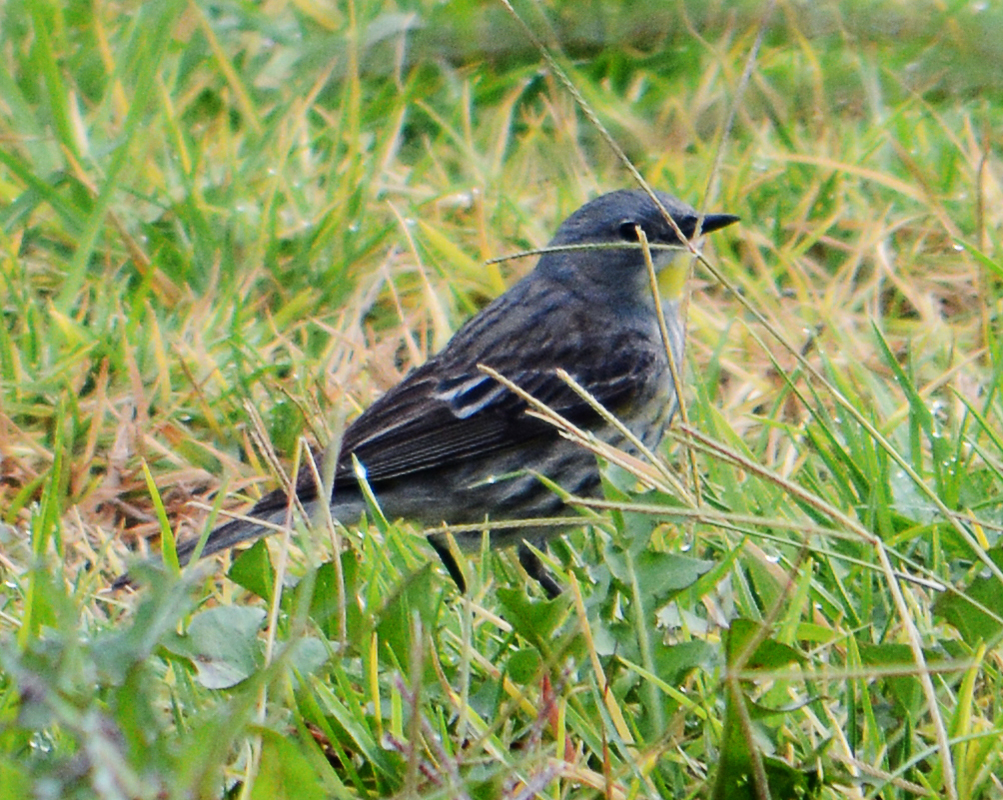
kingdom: Animalia
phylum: Chordata
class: Aves
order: Passeriformes
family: Parulidae
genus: Setophaga
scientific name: Setophaga coronata
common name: Myrtle warbler
